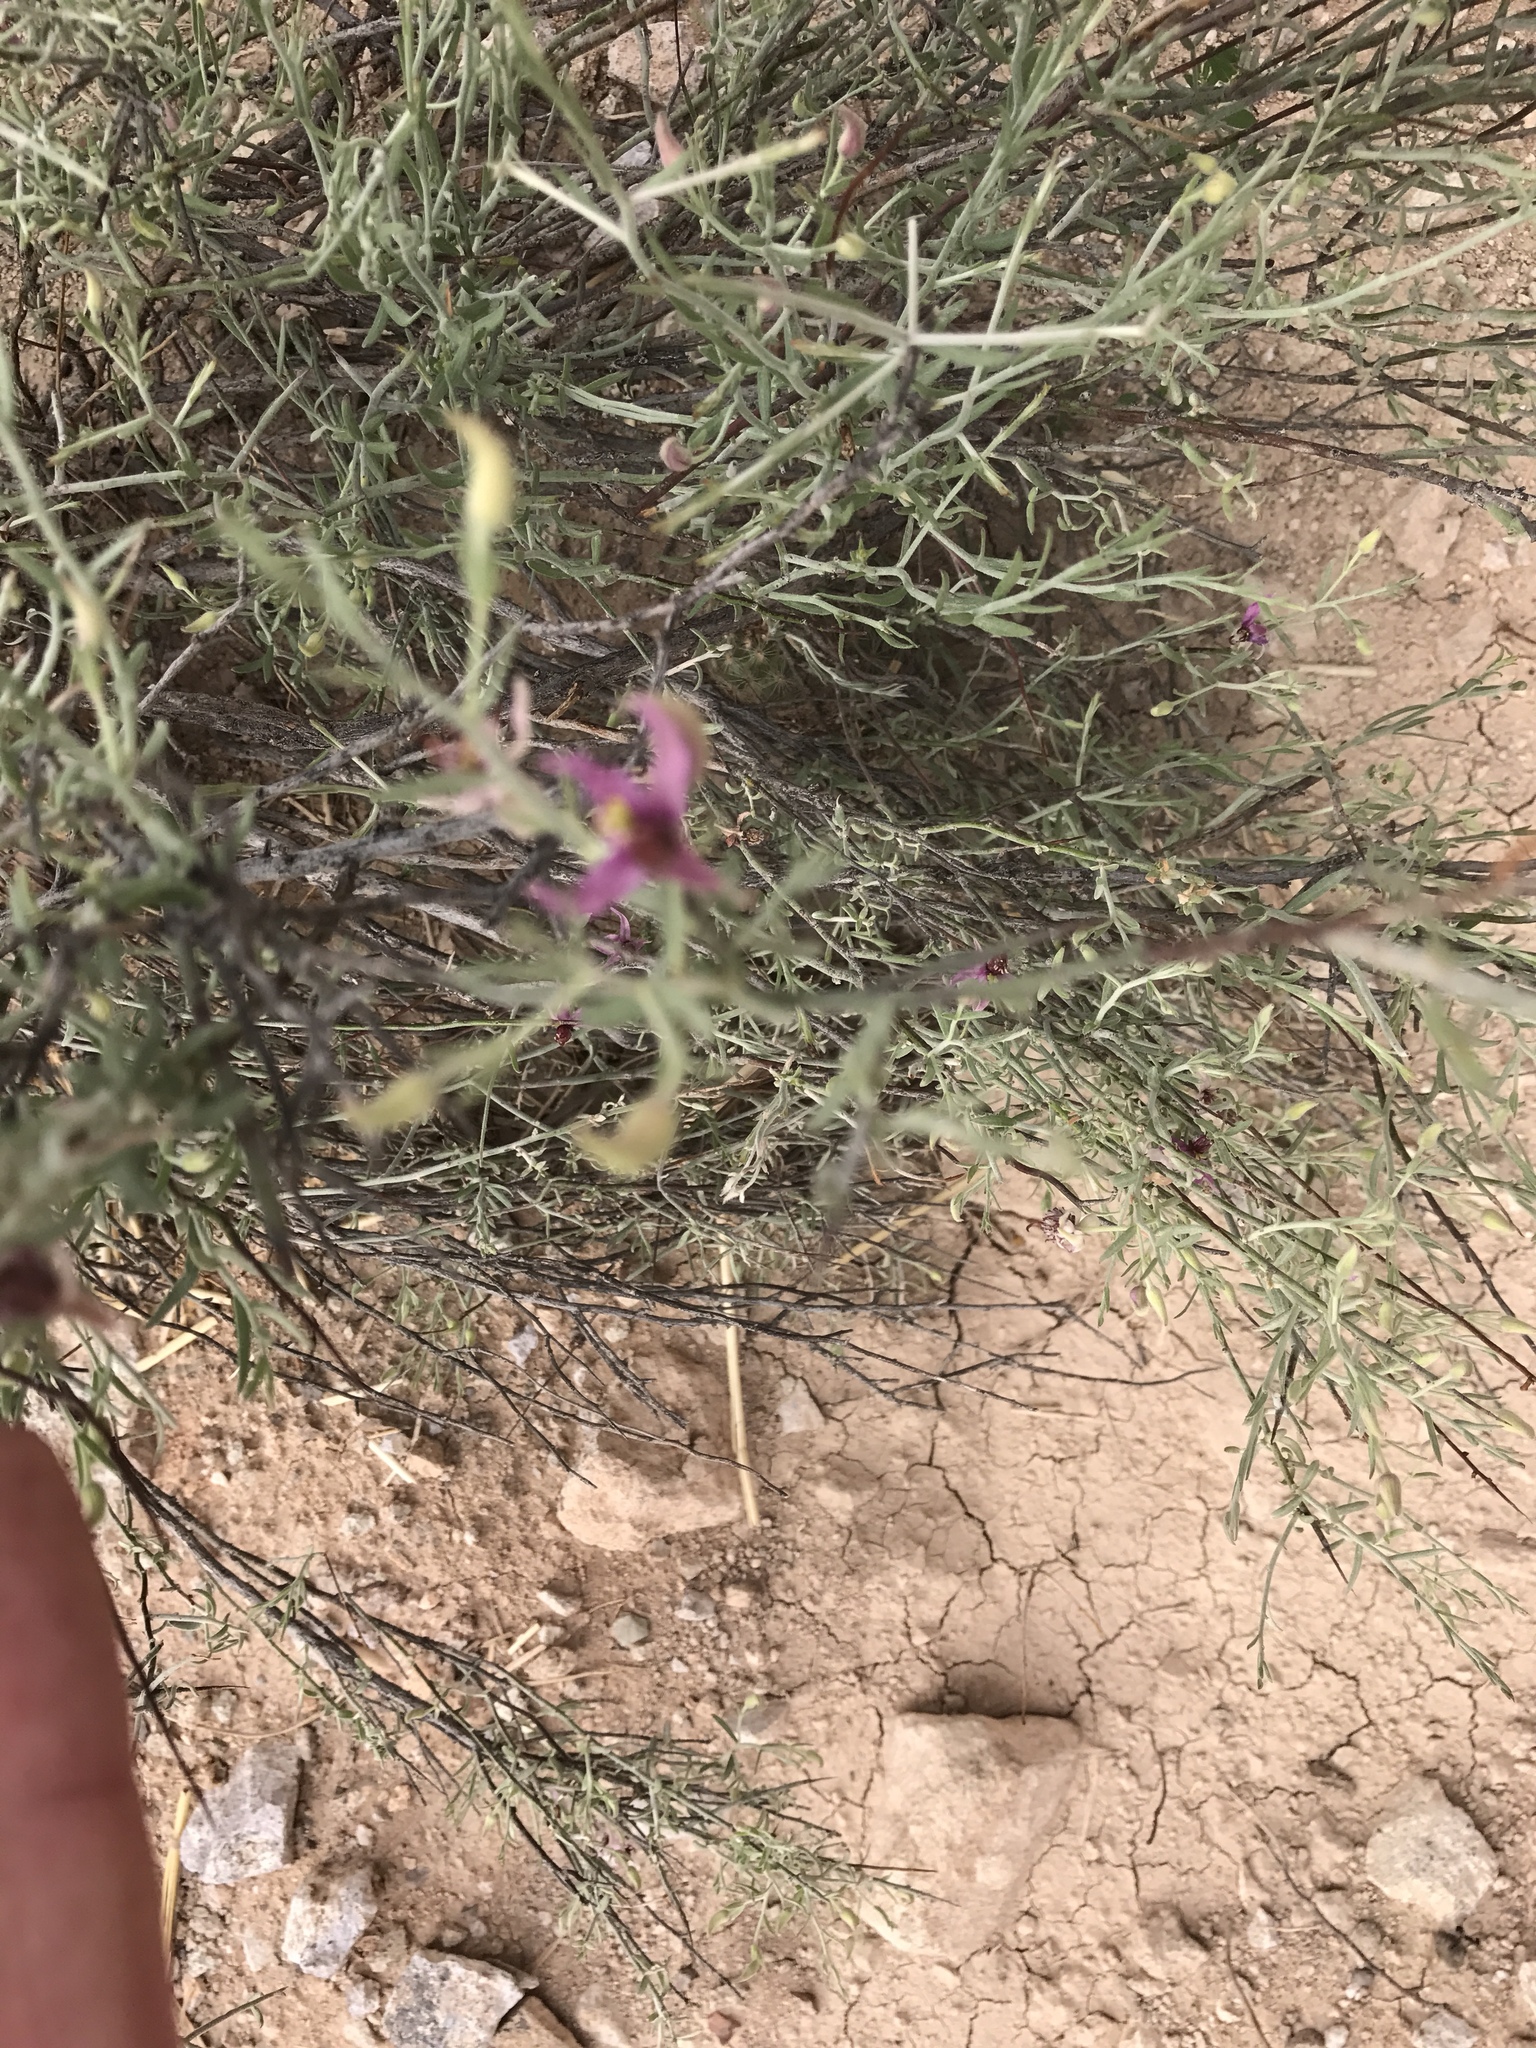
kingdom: Plantae
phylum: Tracheophyta
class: Magnoliopsida
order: Zygophyllales
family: Krameriaceae
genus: Krameria
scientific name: Krameria bicolor
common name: White ratany
